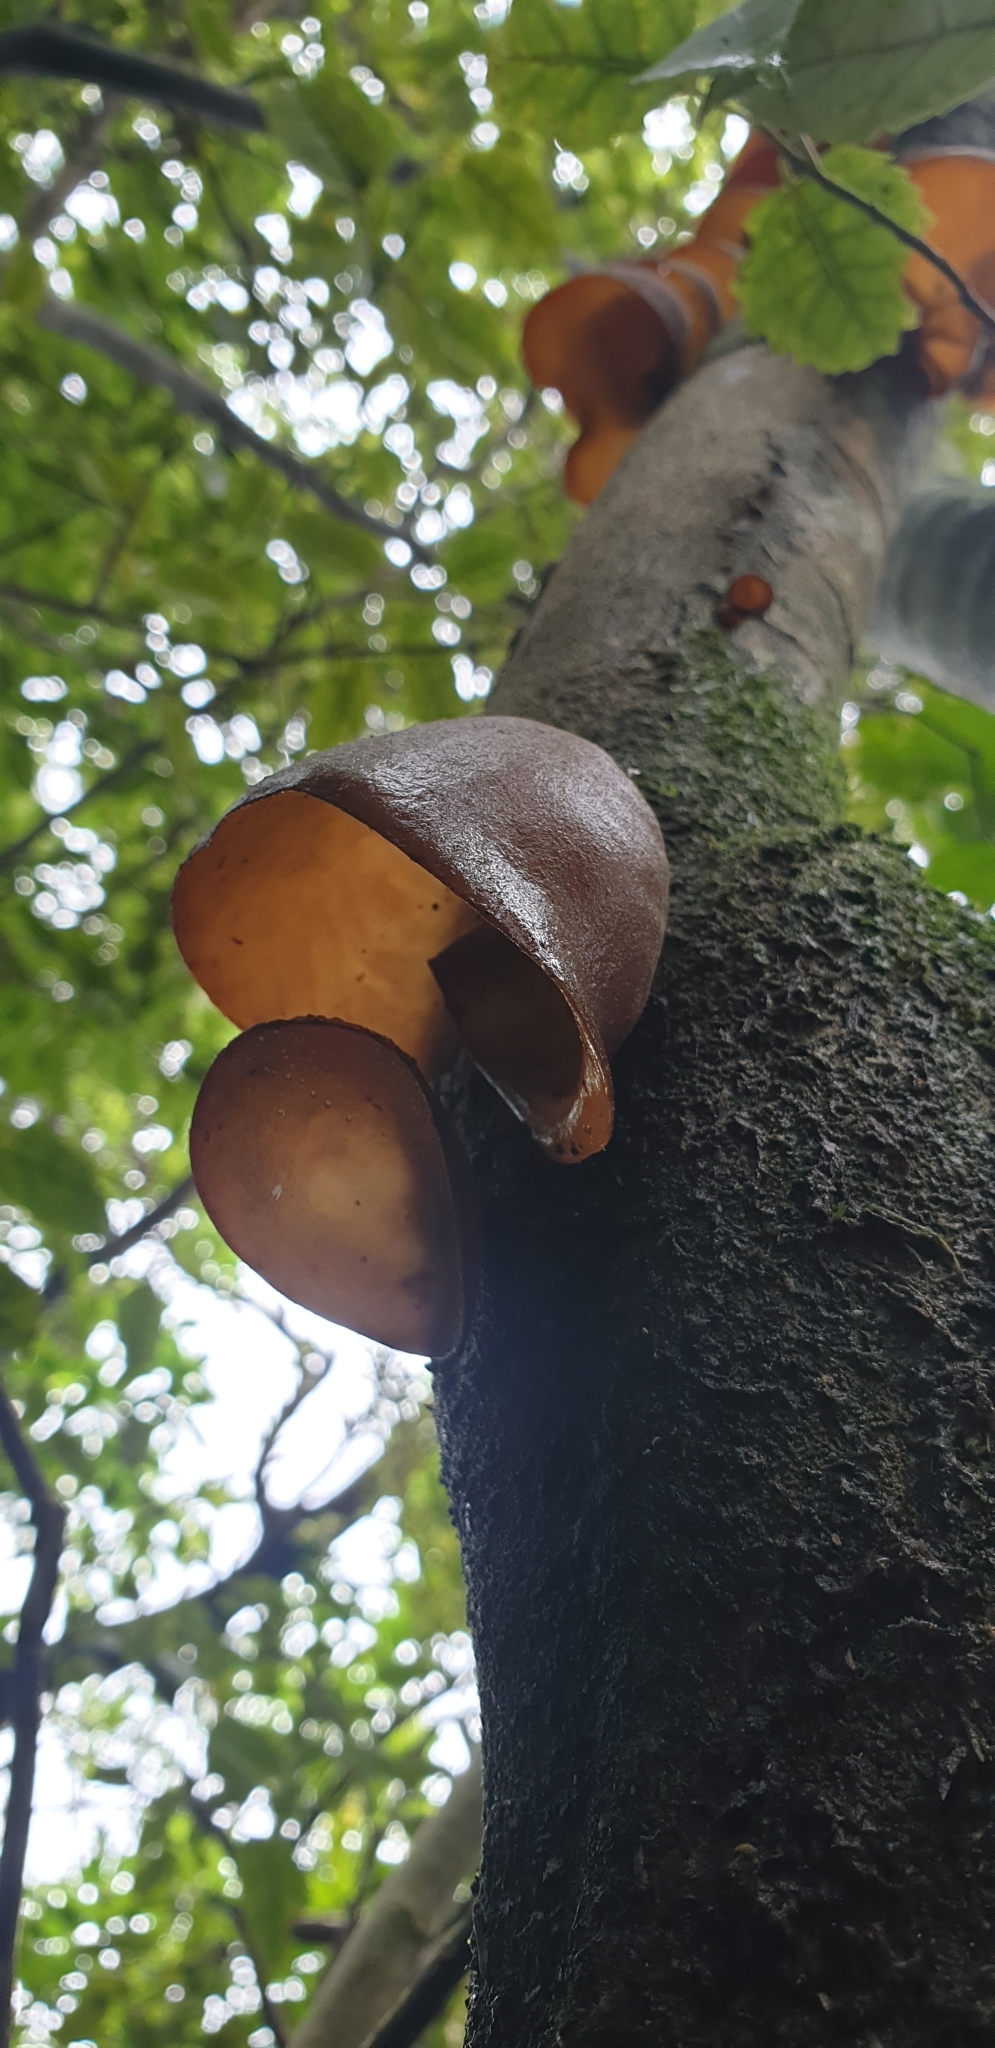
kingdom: Fungi
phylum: Basidiomycota
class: Agaricomycetes
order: Auriculariales
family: Auriculariaceae
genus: Auricularia
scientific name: Auricularia cornea
